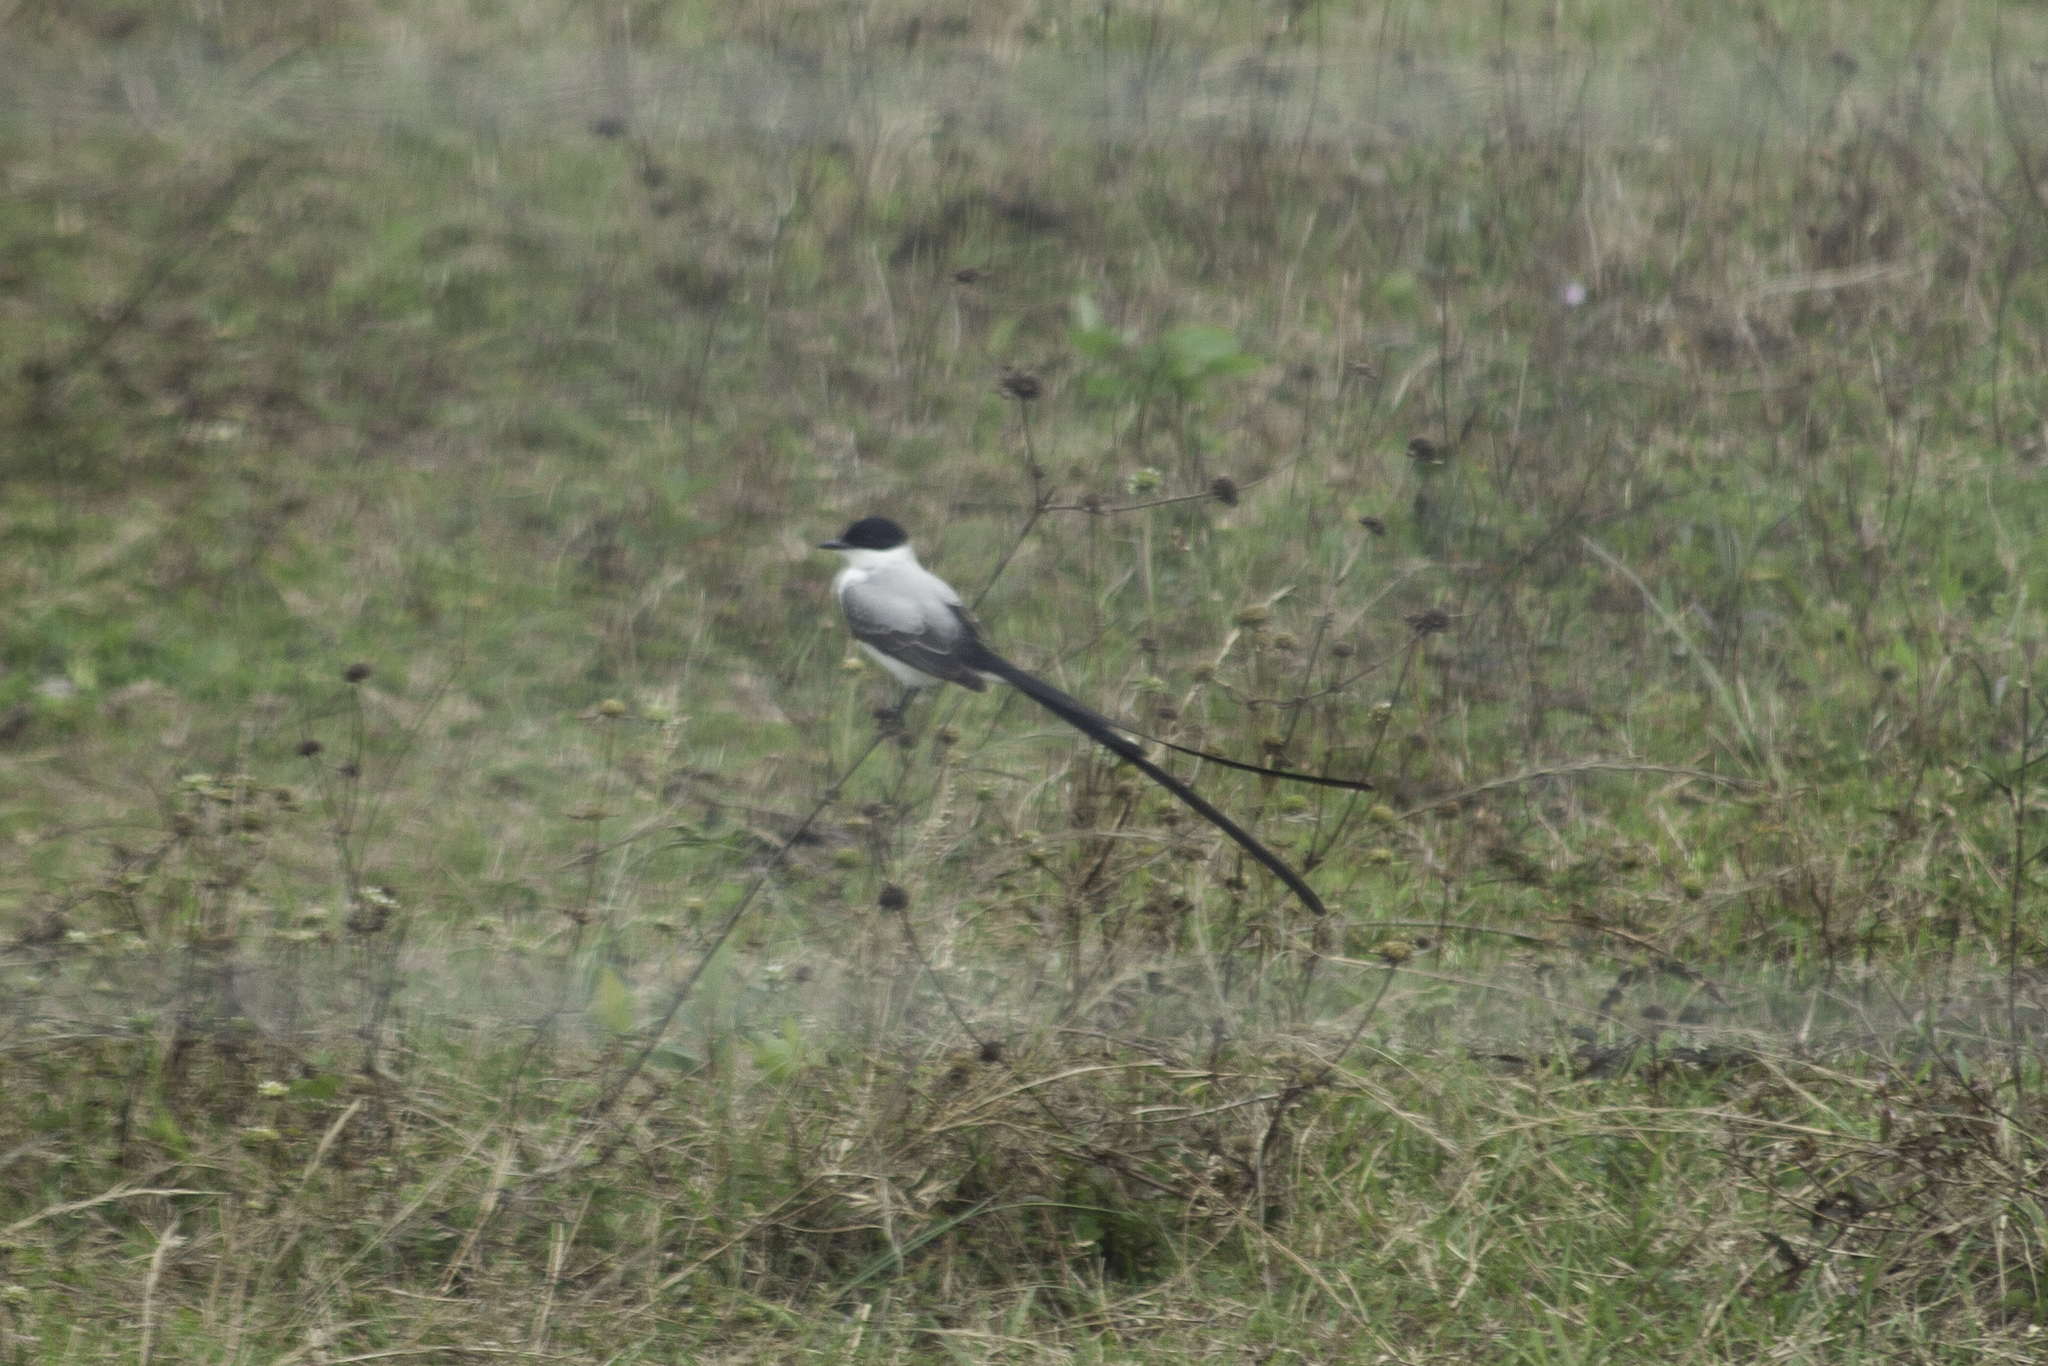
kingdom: Animalia
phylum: Chordata
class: Aves
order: Passeriformes
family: Tyrannidae
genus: Tyrannus
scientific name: Tyrannus savana
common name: Fork-tailed flycatcher
